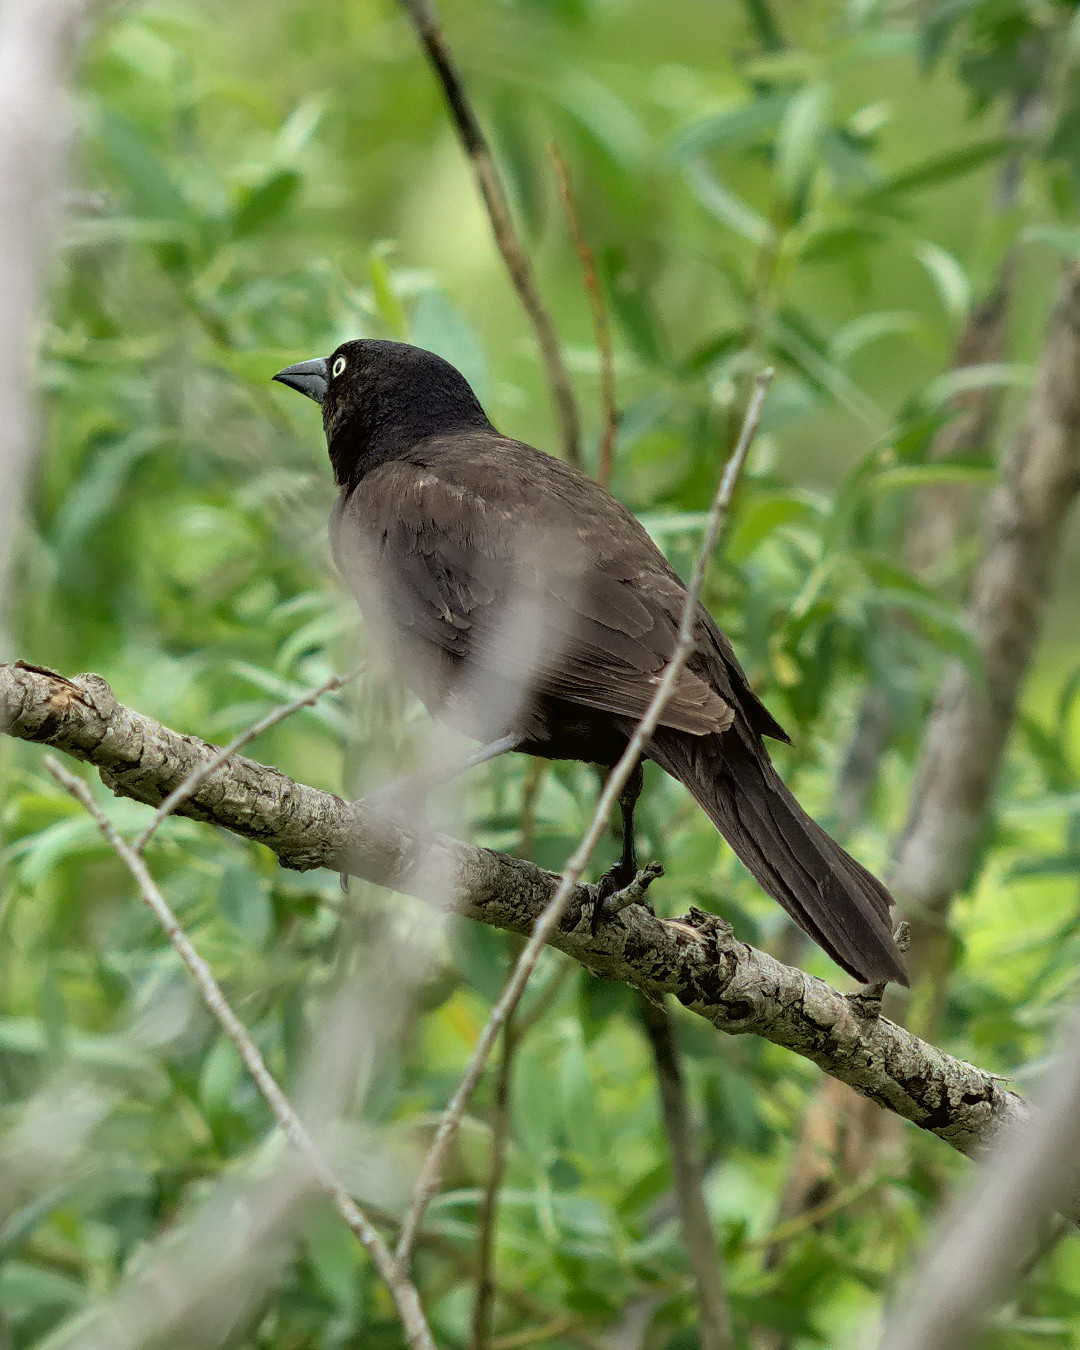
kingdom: Animalia
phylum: Chordata
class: Aves
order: Passeriformes
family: Icteridae
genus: Quiscalus
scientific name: Quiscalus quiscula
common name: Common grackle
